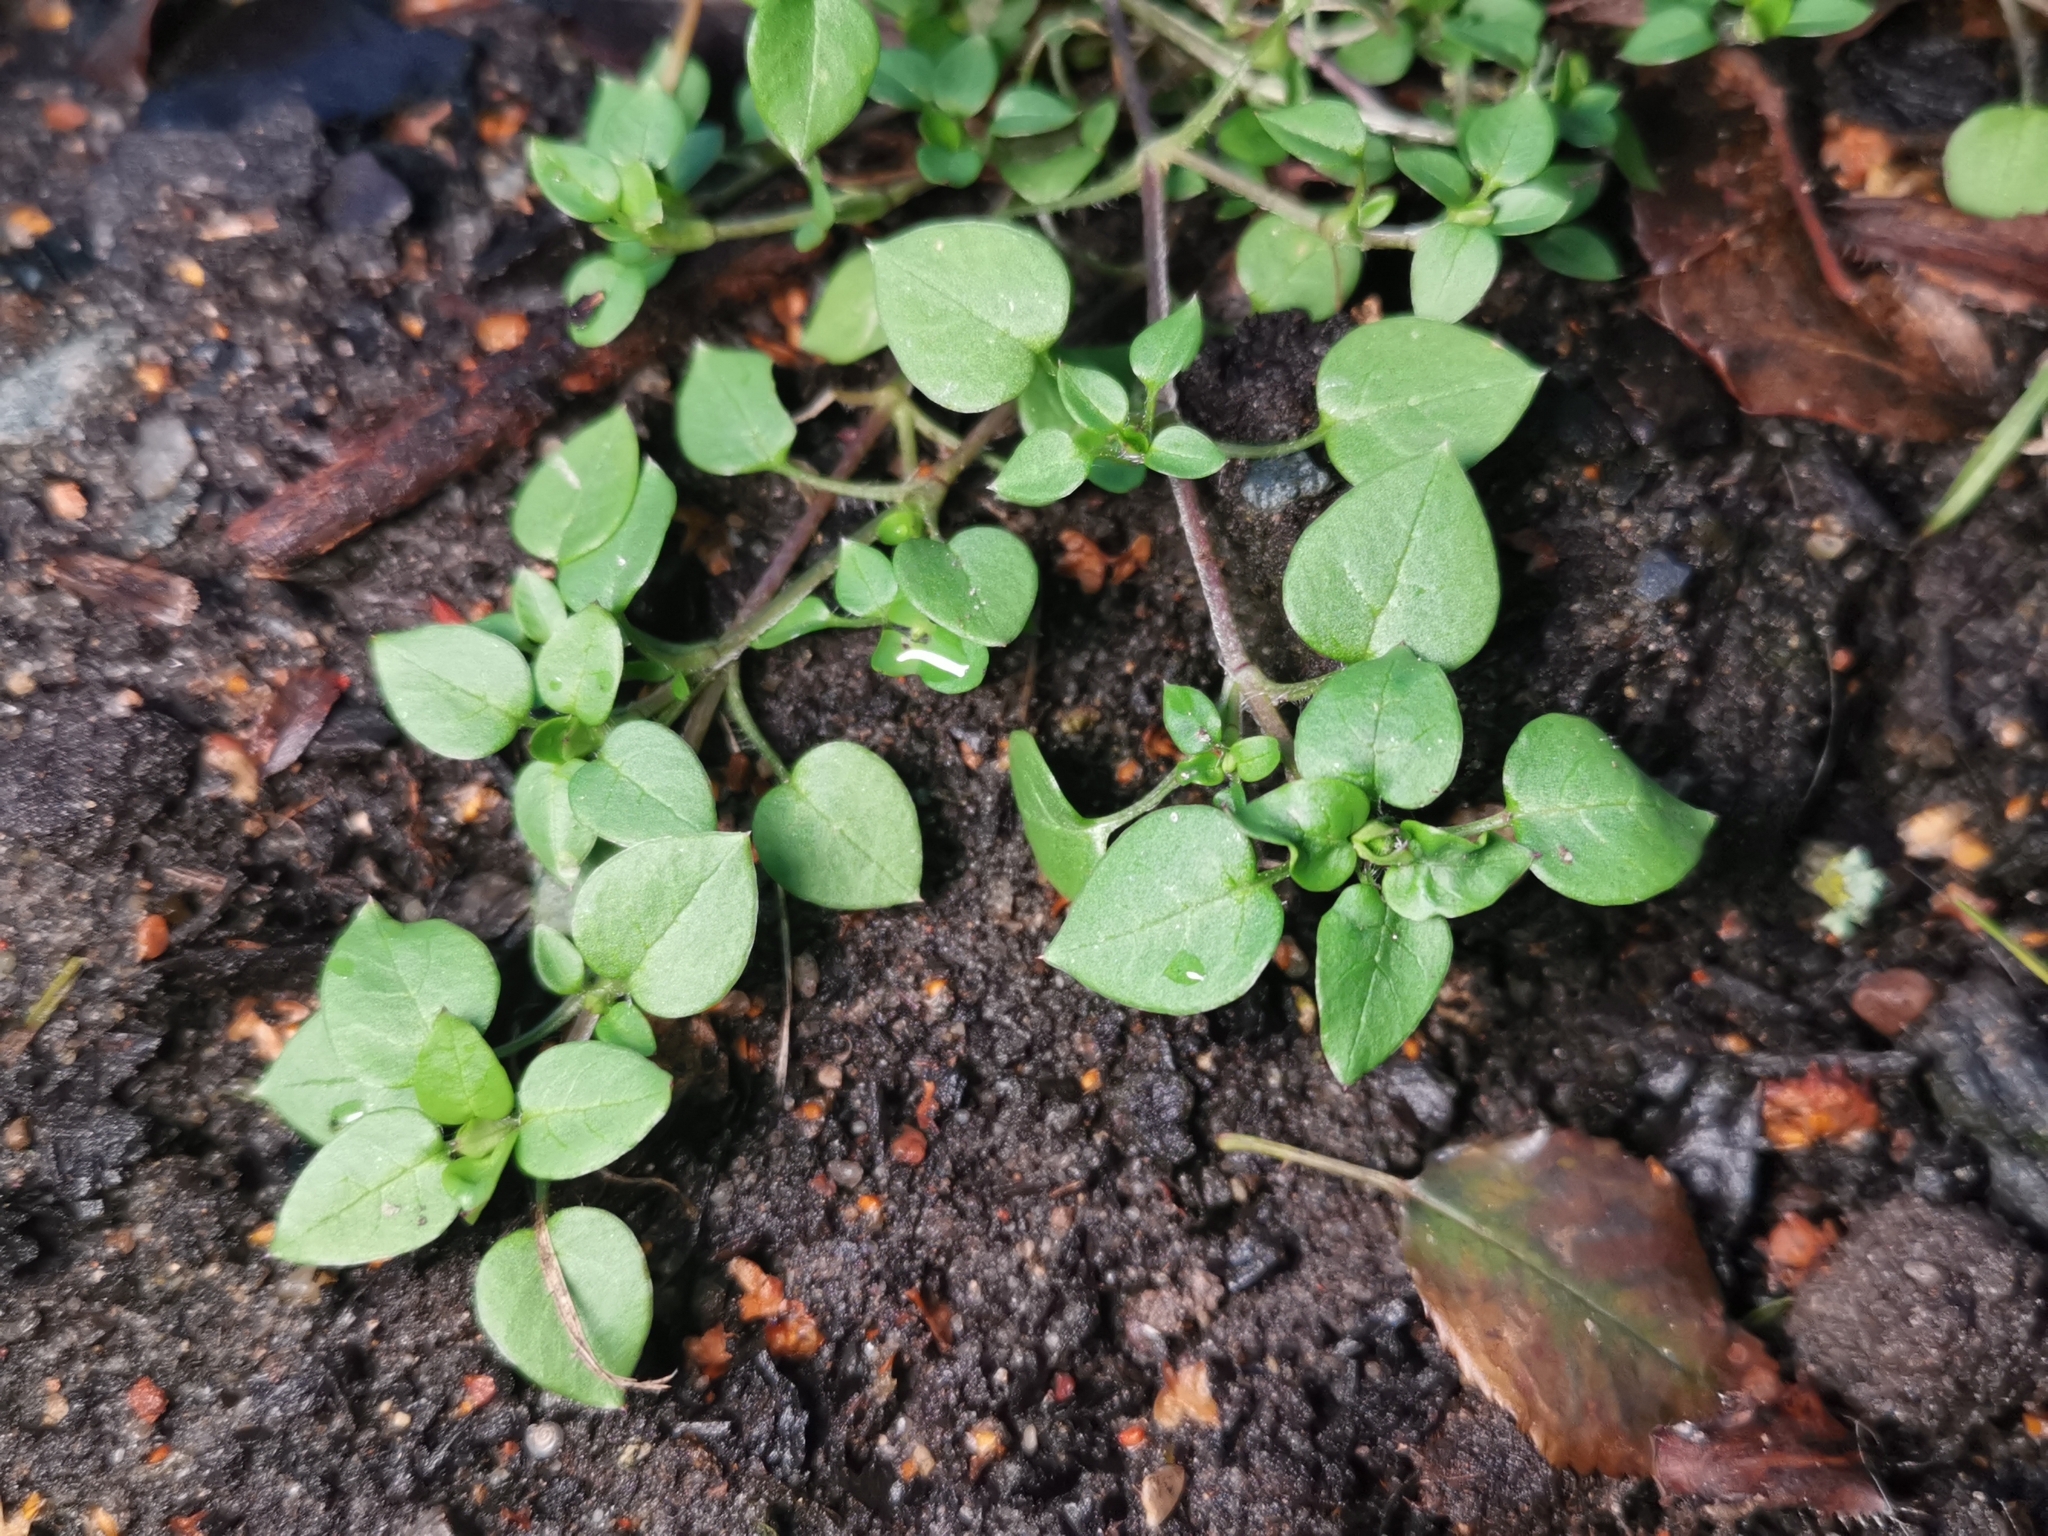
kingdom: Plantae
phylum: Tracheophyta
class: Magnoliopsida
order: Caryophyllales
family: Caryophyllaceae
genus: Stellaria
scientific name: Stellaria media
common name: Common chickweed
